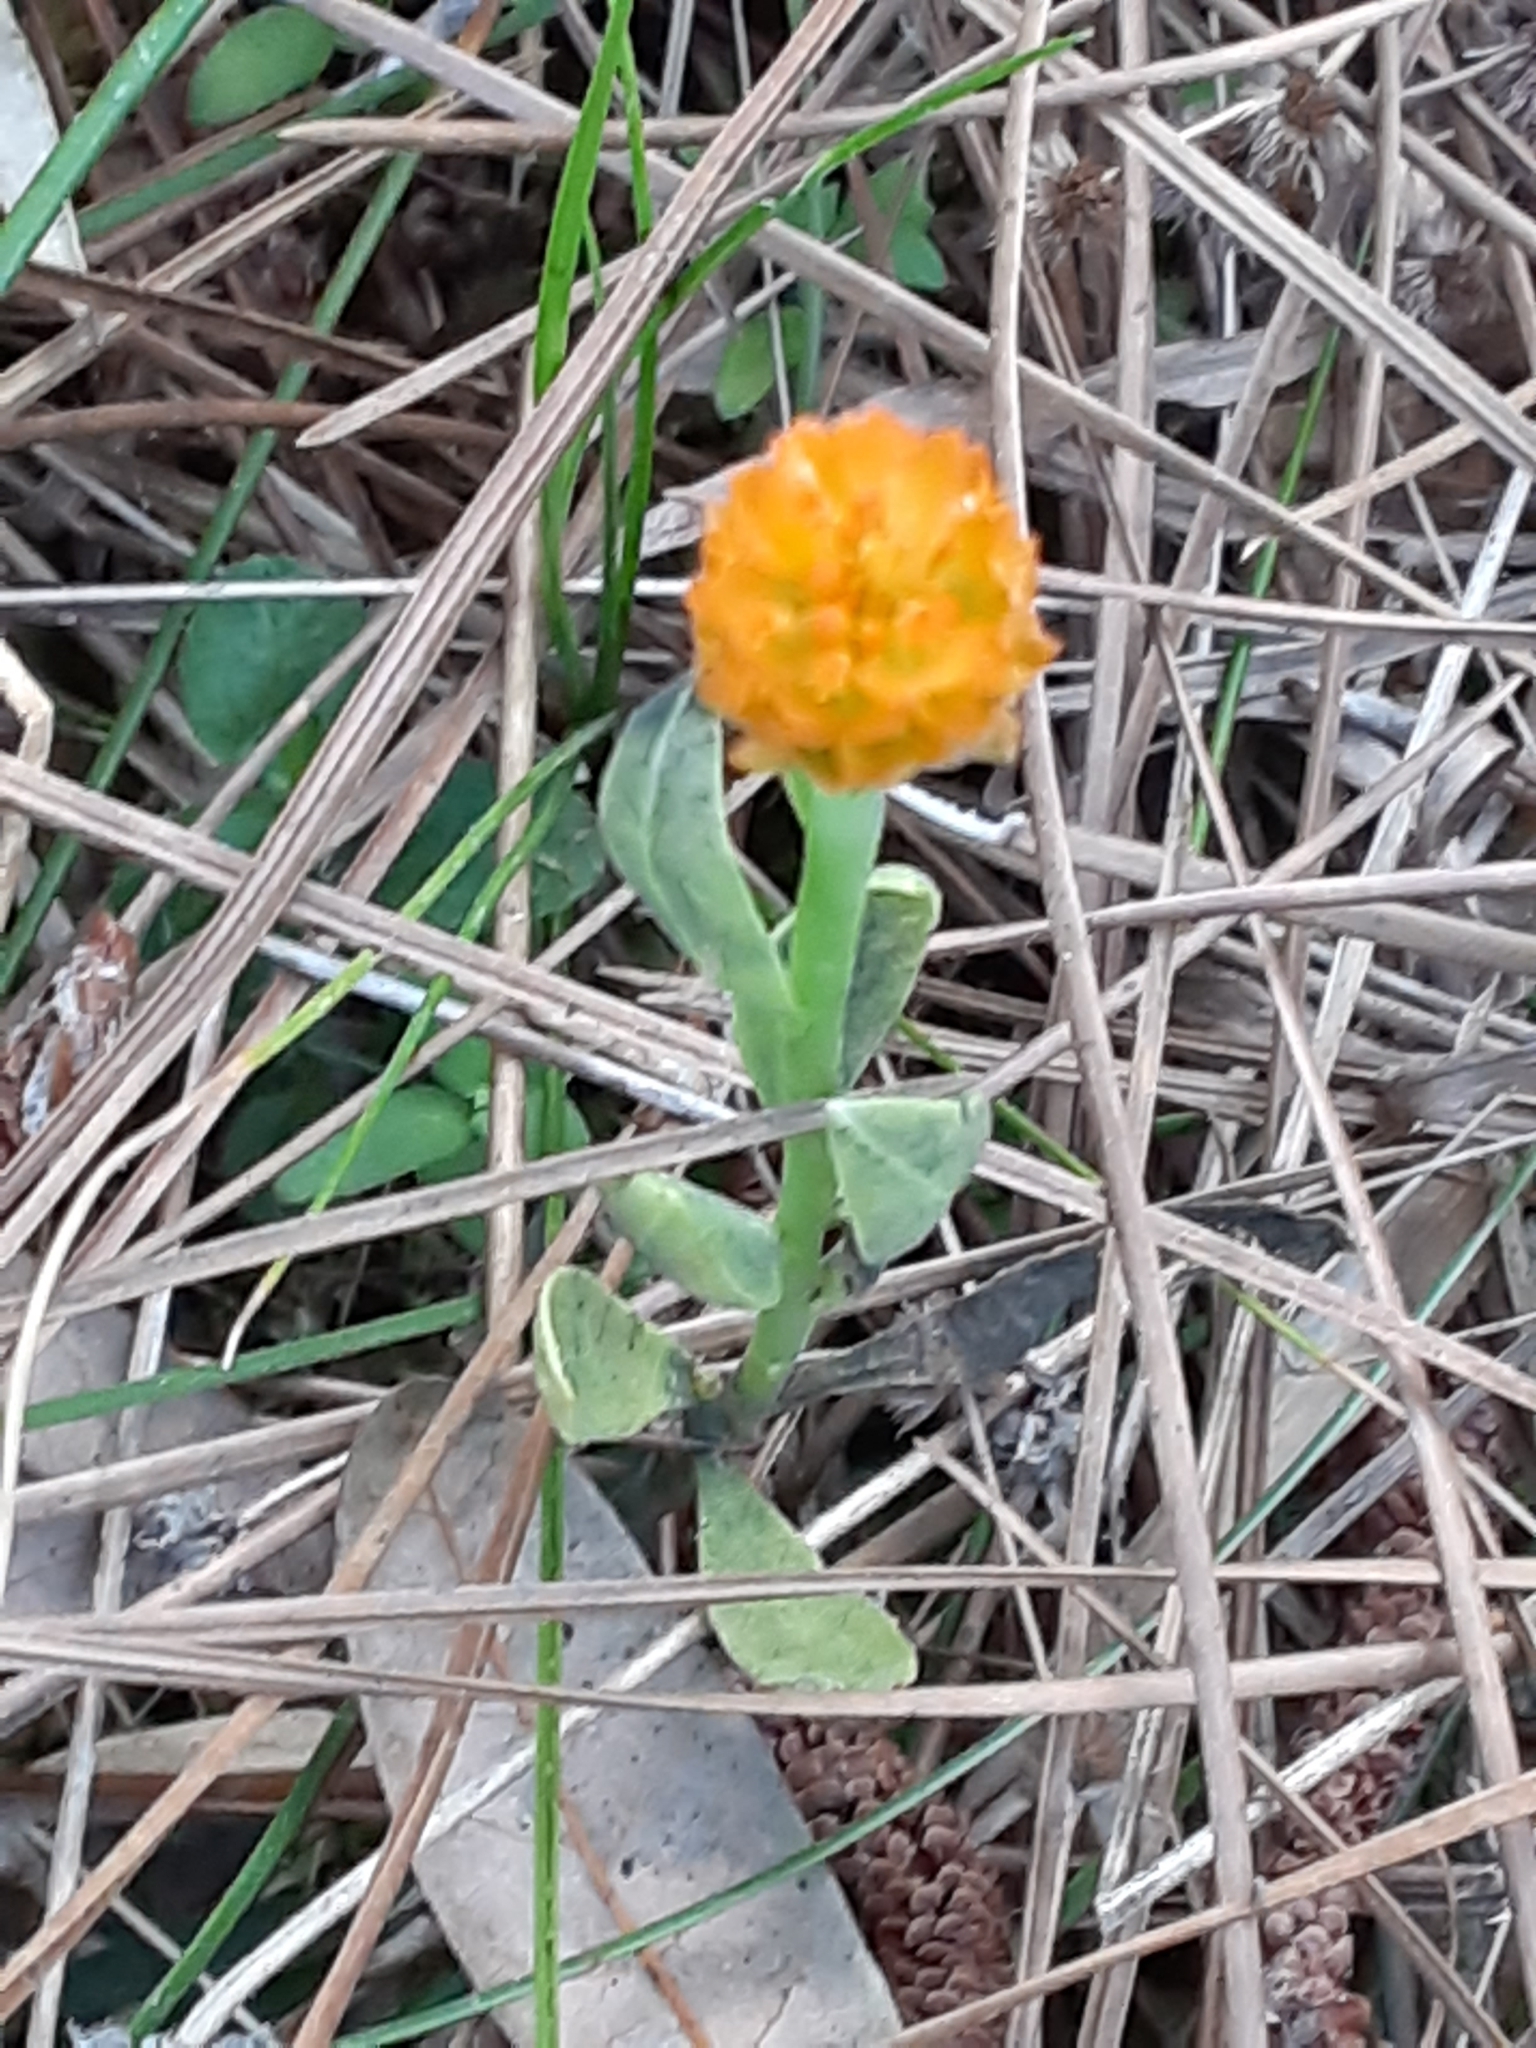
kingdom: Plantae
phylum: Tracheophyta
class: Magnoliopsida
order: Fabales
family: Polygalaceae
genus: Polygala
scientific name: Polygala lutea
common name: Orange milkwort
